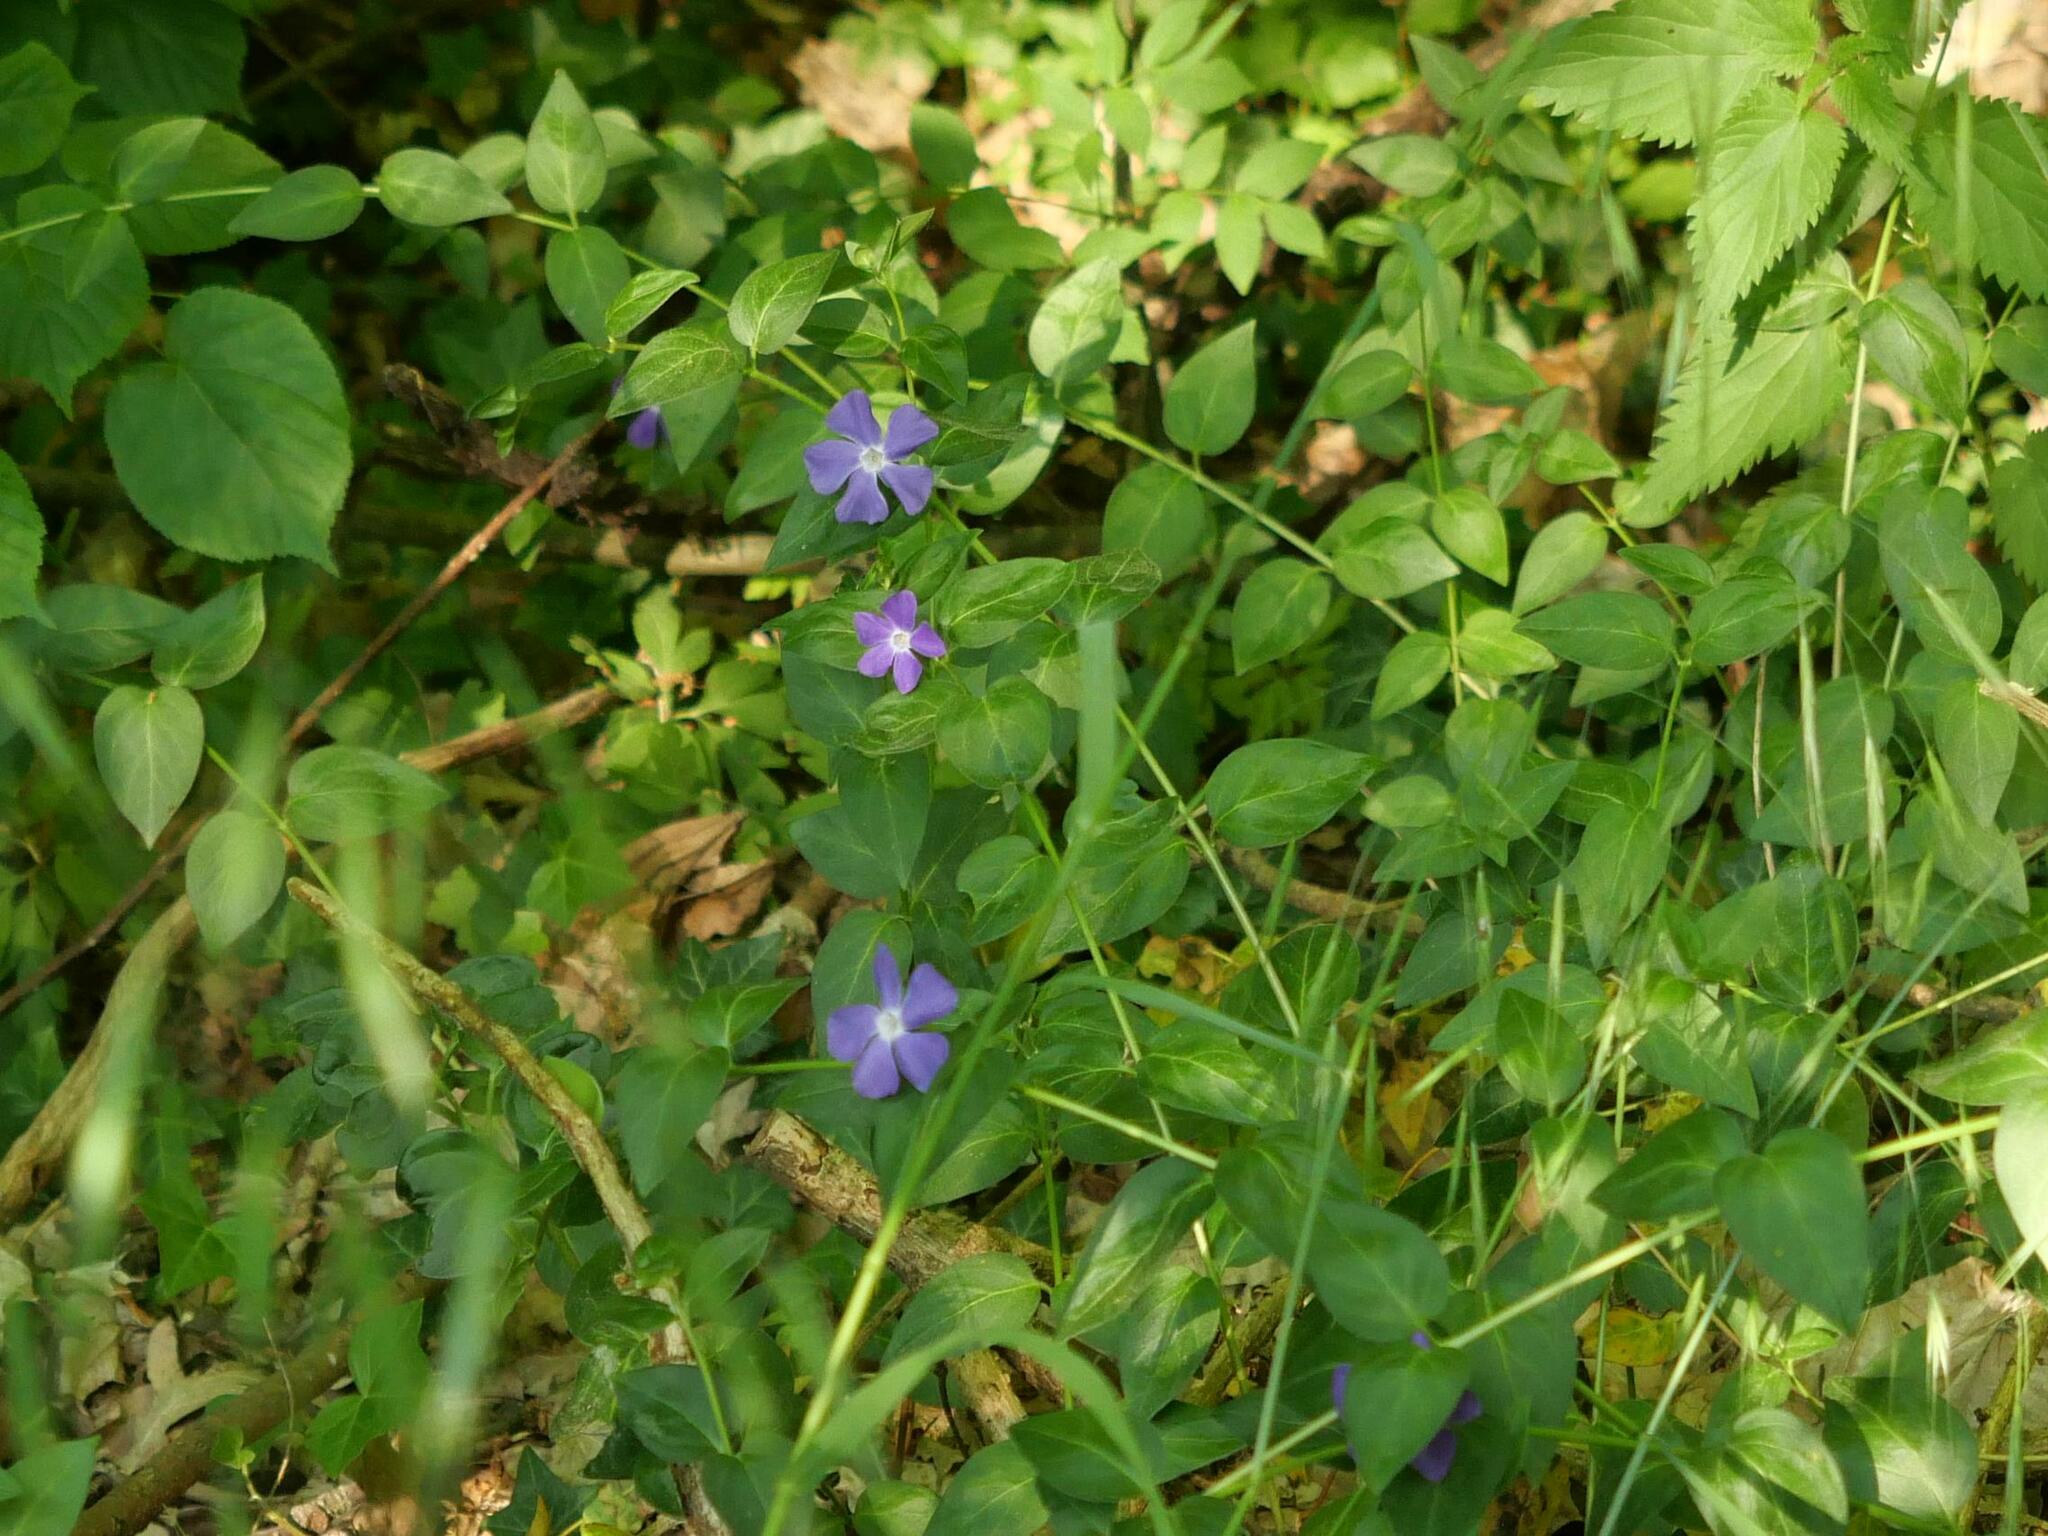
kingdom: Plantae
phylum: Tracheophyta
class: Magnoliopsida
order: Gentianales
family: Apocynaceae
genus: Vinca
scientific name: Vinca major
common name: Greater periwinkle
